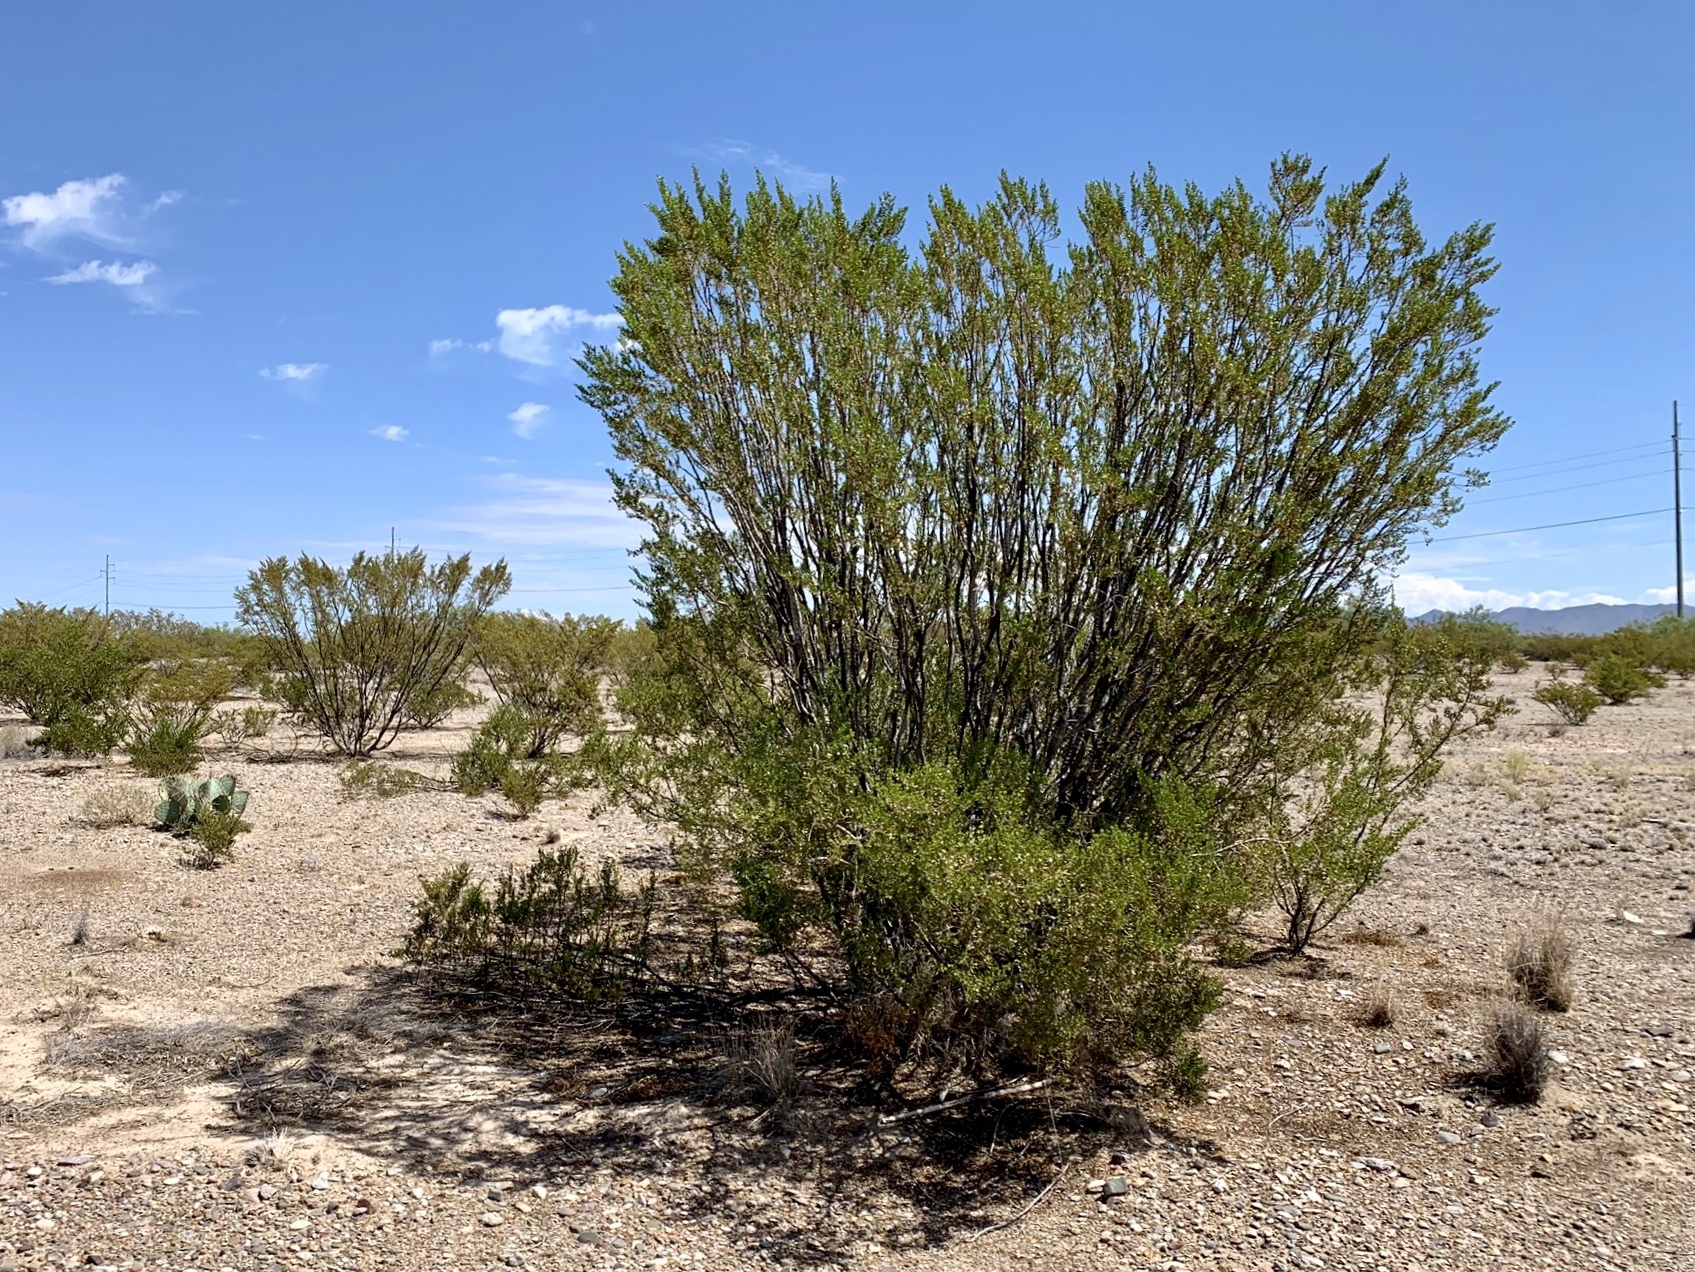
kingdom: Plantae
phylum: Tracheophyta
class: Magnoliopsida
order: Zygophyllales
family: Zygophyllaceae
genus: Larrea
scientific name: Larrea tridentata
